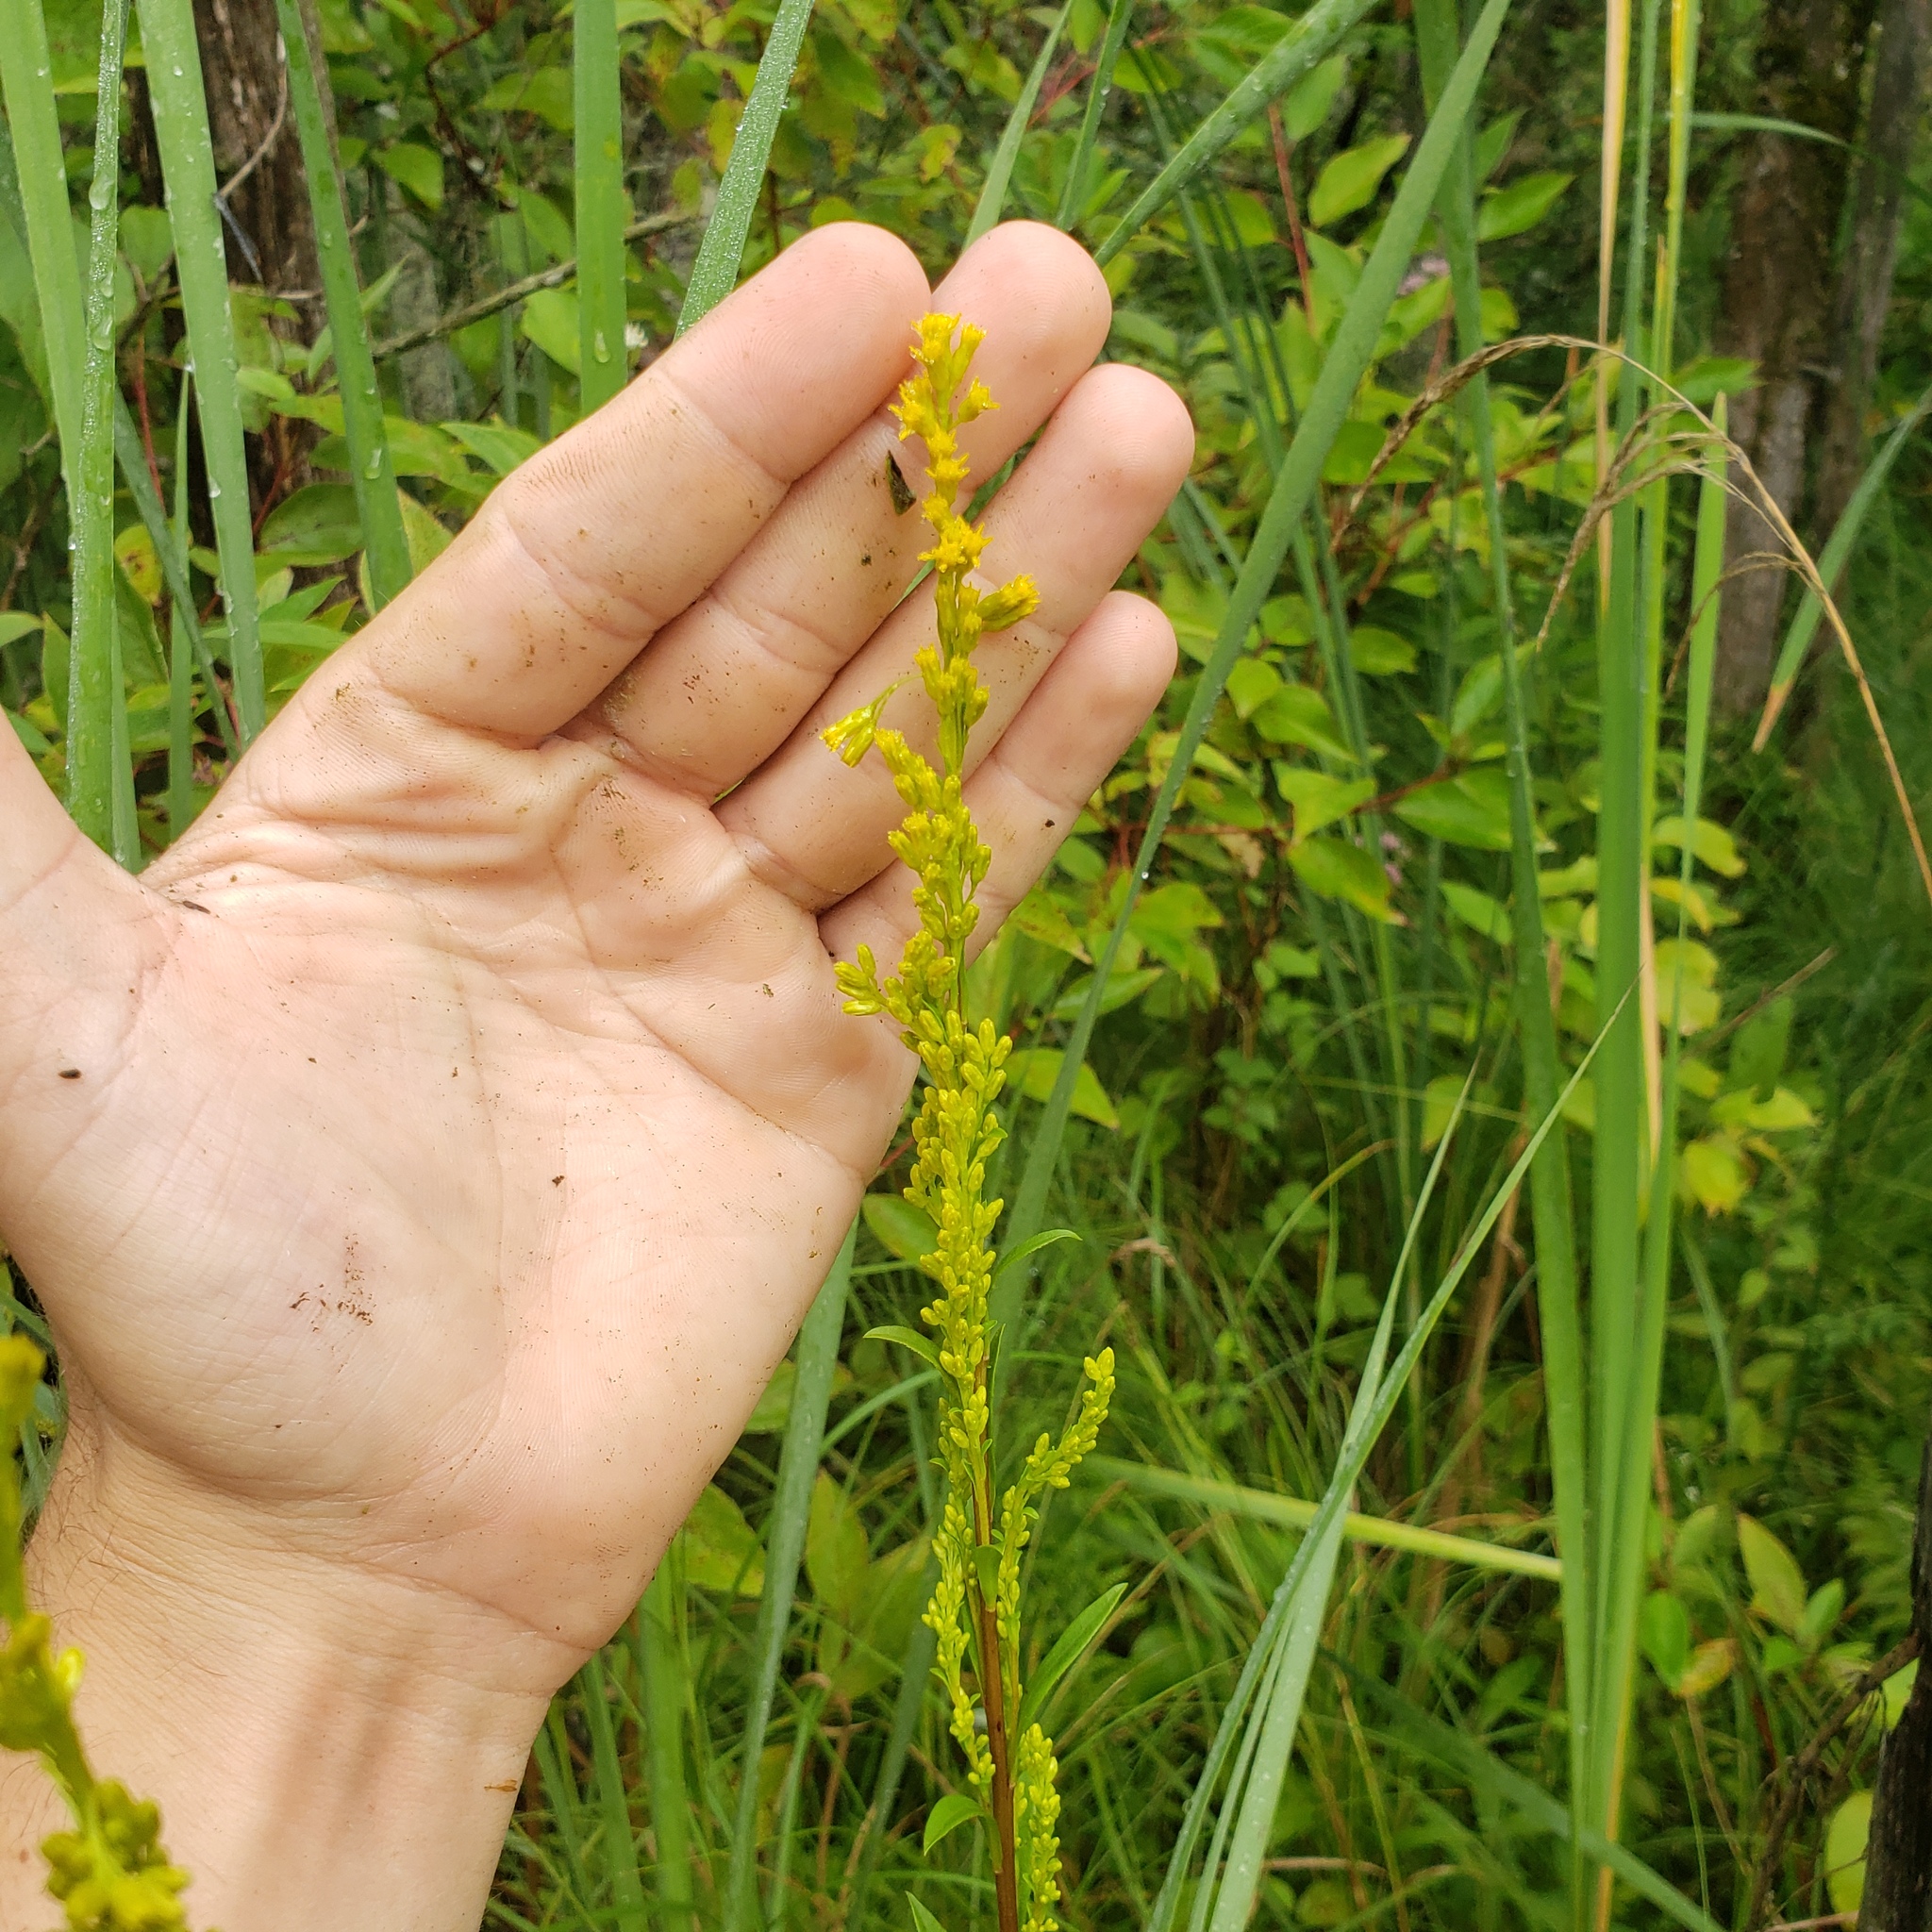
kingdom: Plantae
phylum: Tracheophyta
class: Magnoliopsida
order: Asterales
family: Asteraceae
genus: Solidago
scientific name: Solidago uliginosa
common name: Bog goldenrod
